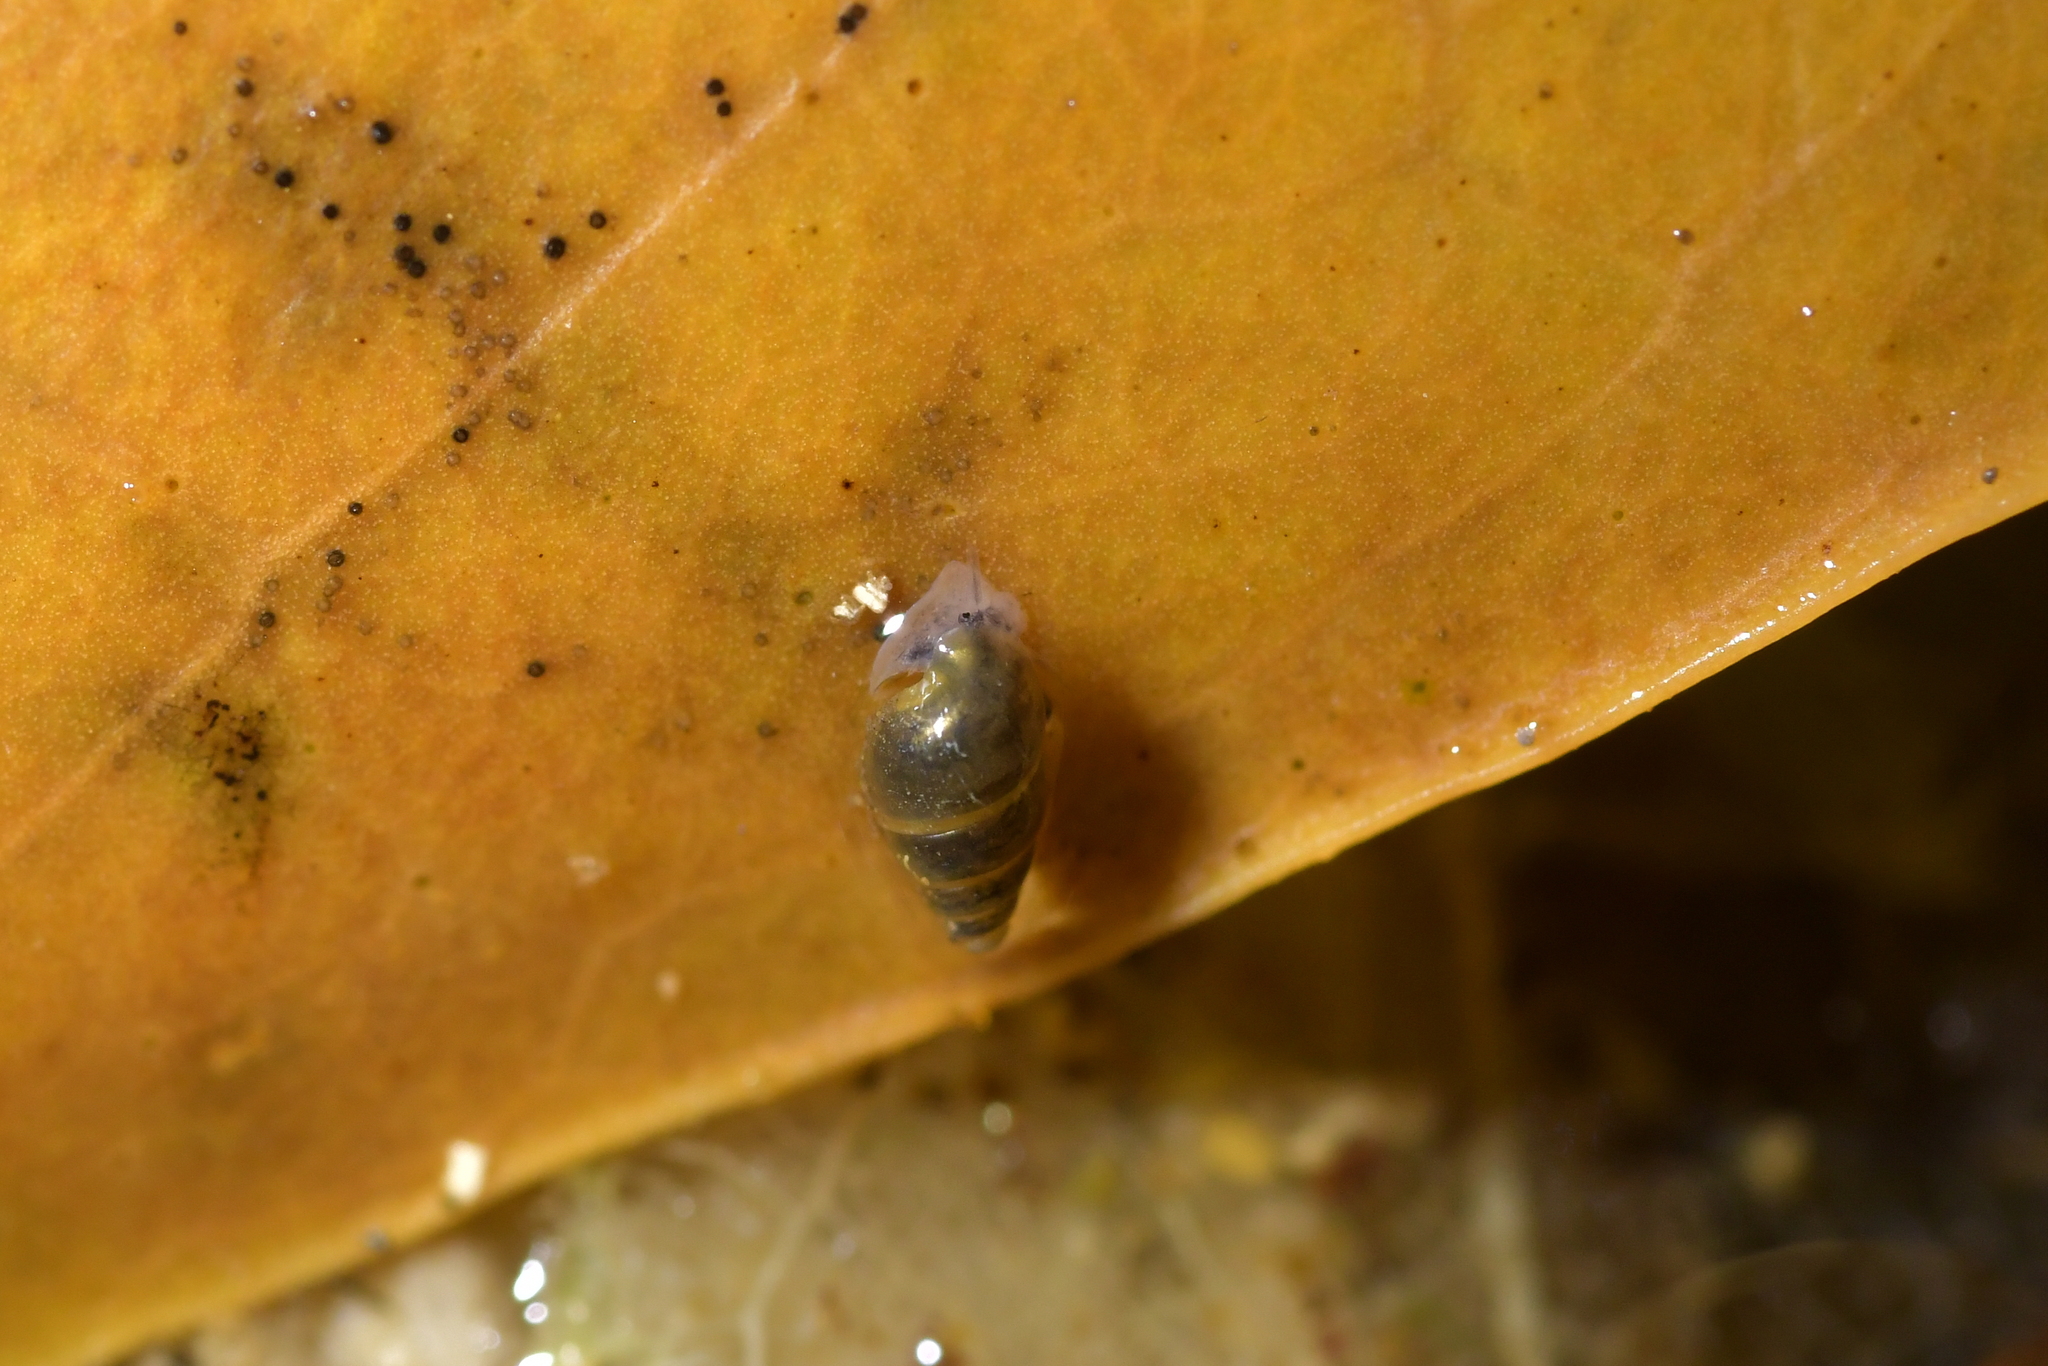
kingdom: Animalia
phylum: Mollusca
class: Gastropoda
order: Littorinimorpha
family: Tateidae
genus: Potamopyrgus
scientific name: Potamopyrgus antipodarum
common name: Jenkins' spire snail
